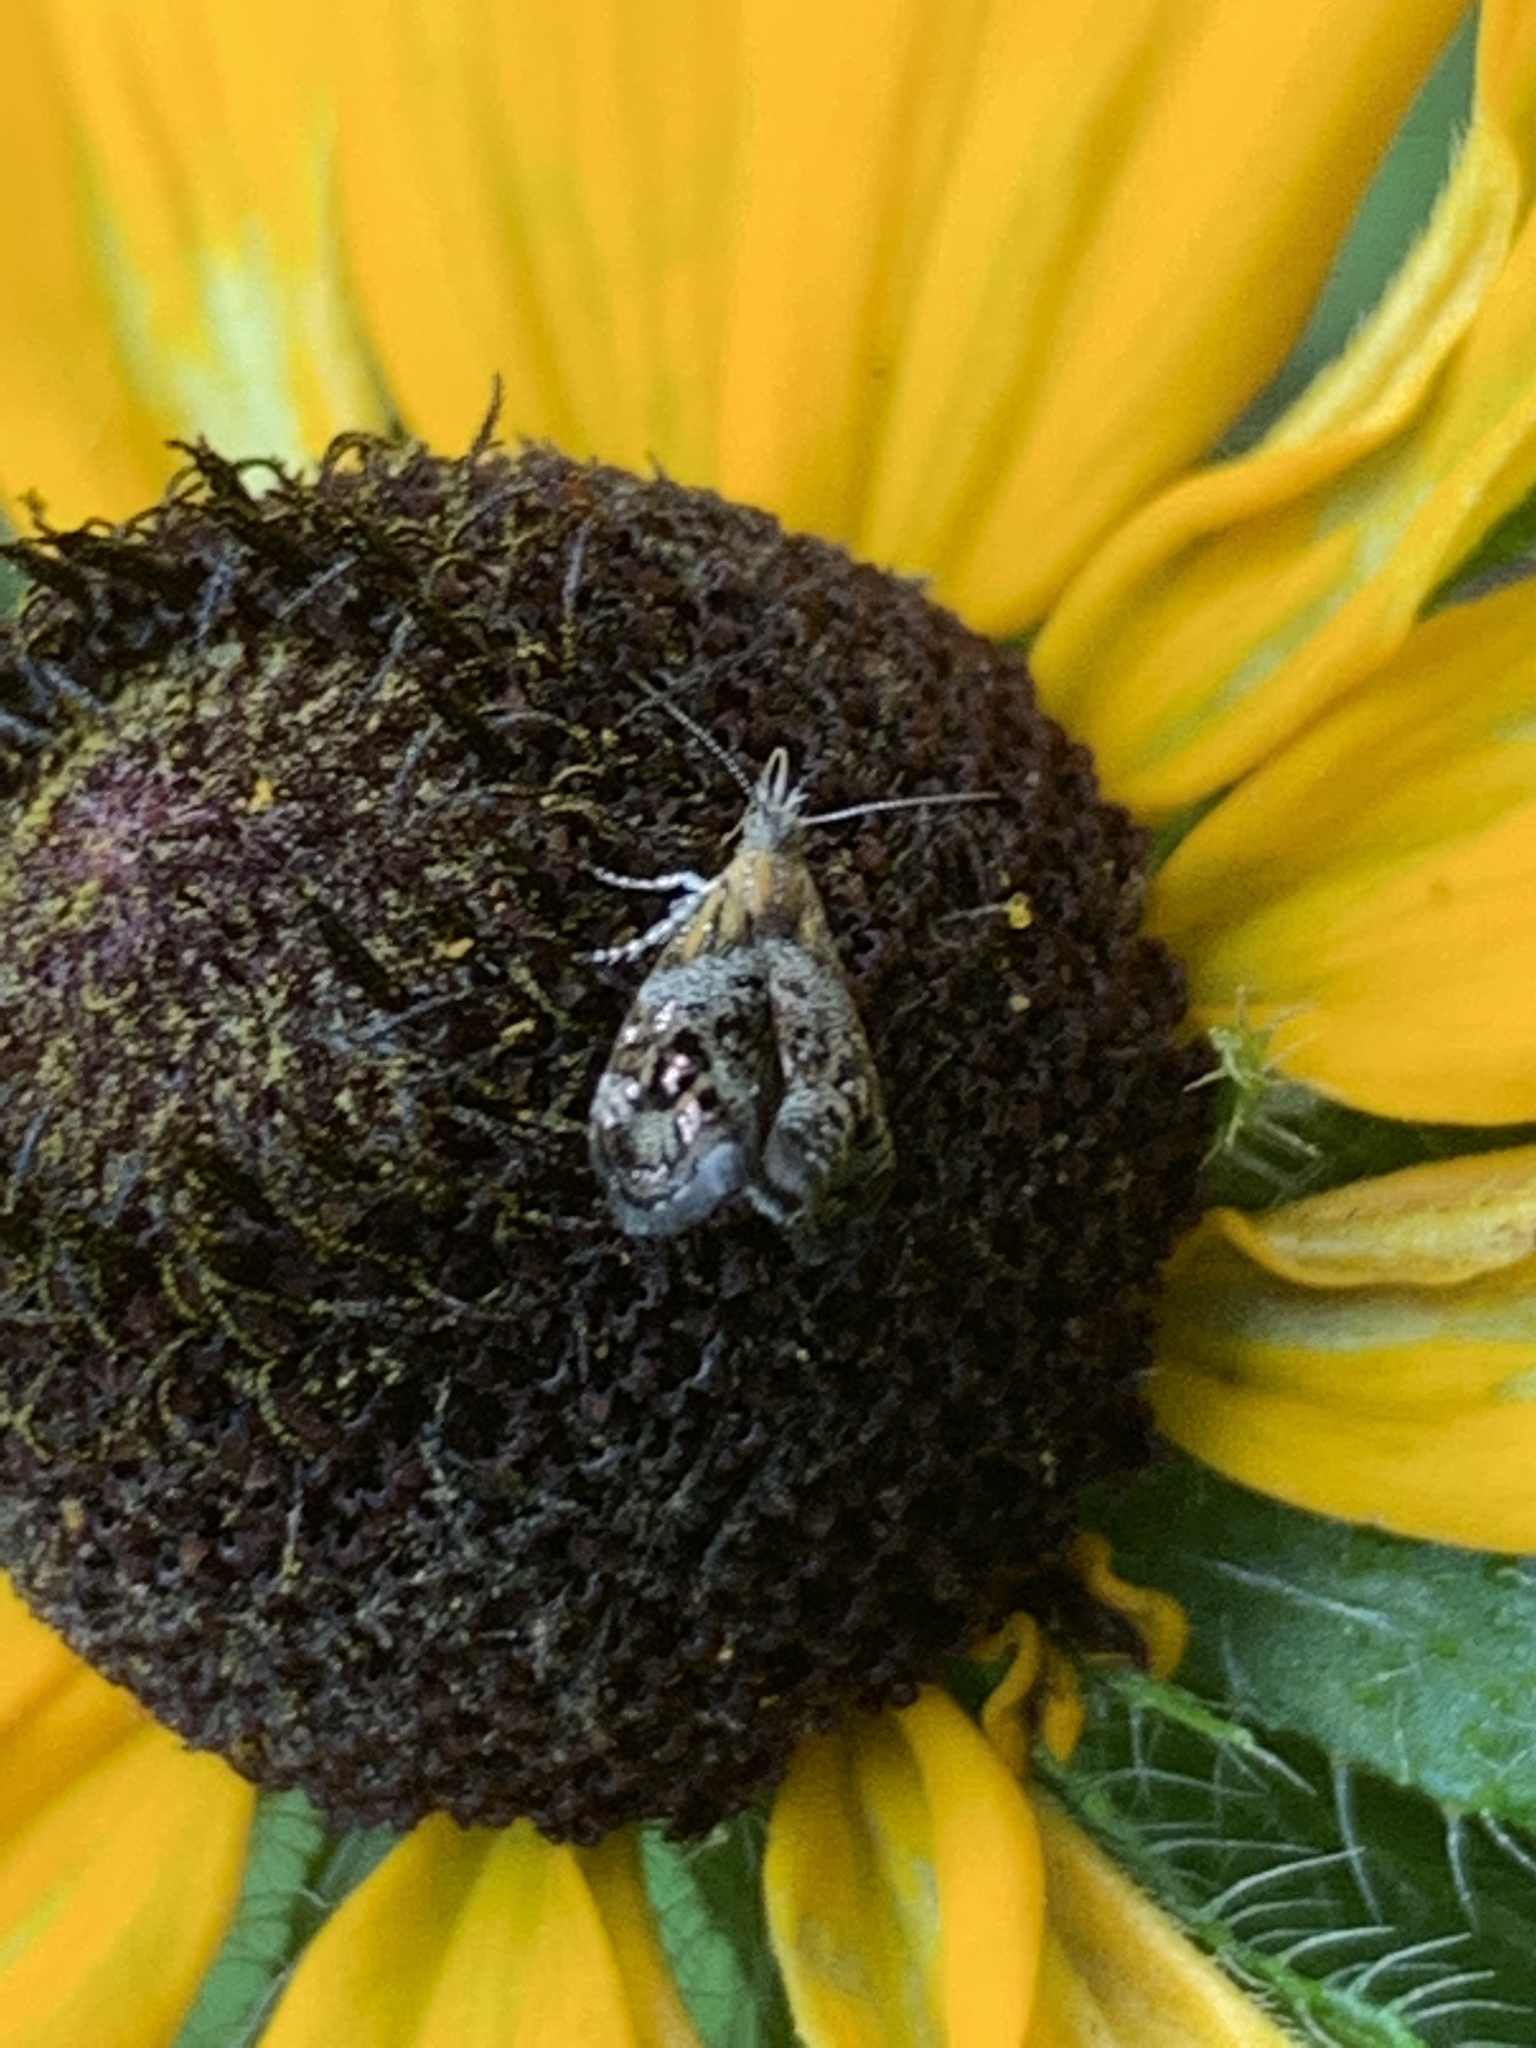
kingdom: Animalia
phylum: Arthropoda
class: Insecta
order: Lepidoptera
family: Choreutidae
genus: Tebenna
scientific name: Tebenna gnaphaliella
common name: Everlasting tebenna moth
